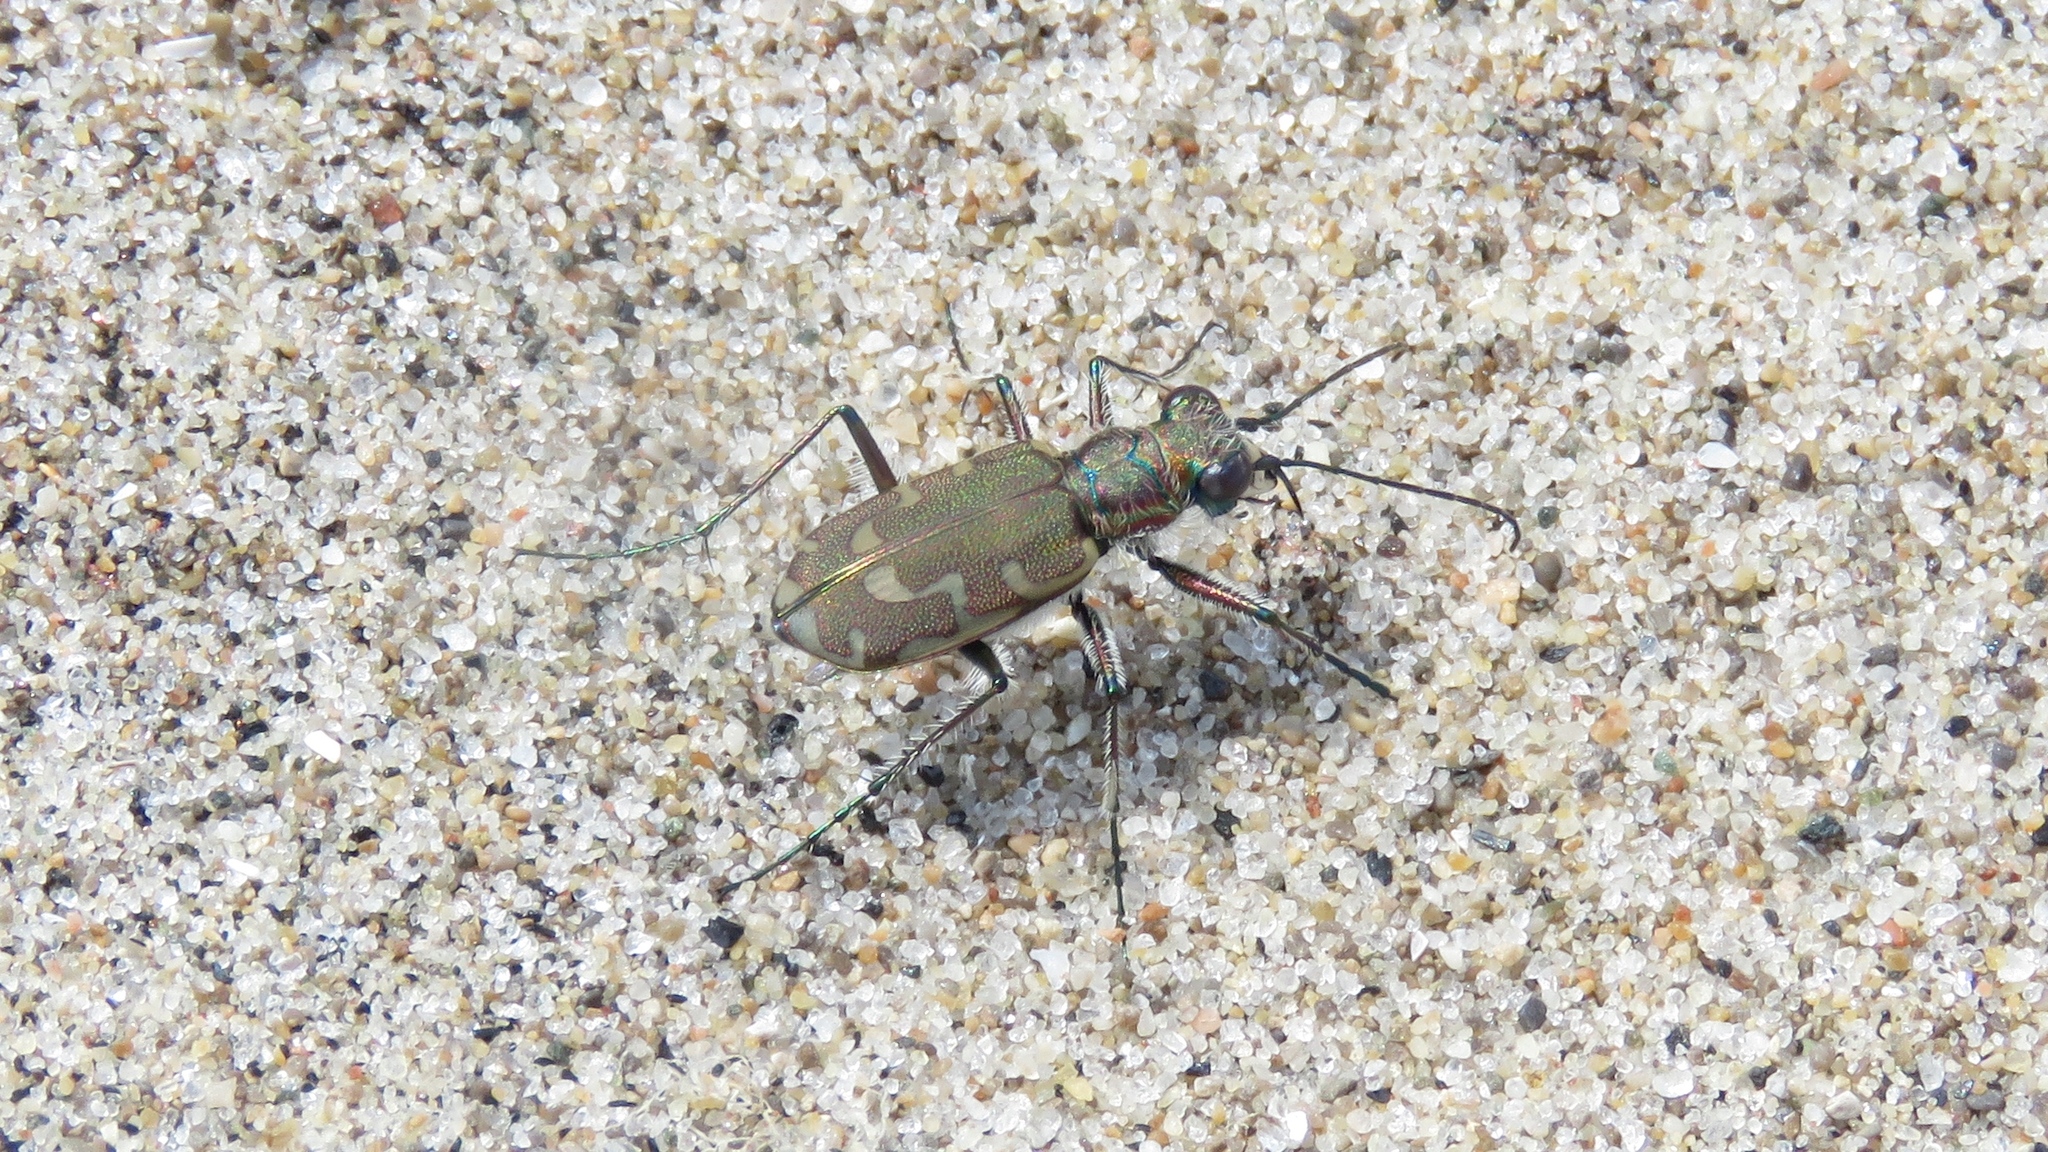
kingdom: Animalia
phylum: Arthropoda
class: Insecta
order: Coleoptera
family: Carabidae
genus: Cicindela
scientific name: Cicindela repanda
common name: Bronzed tiger beetle
